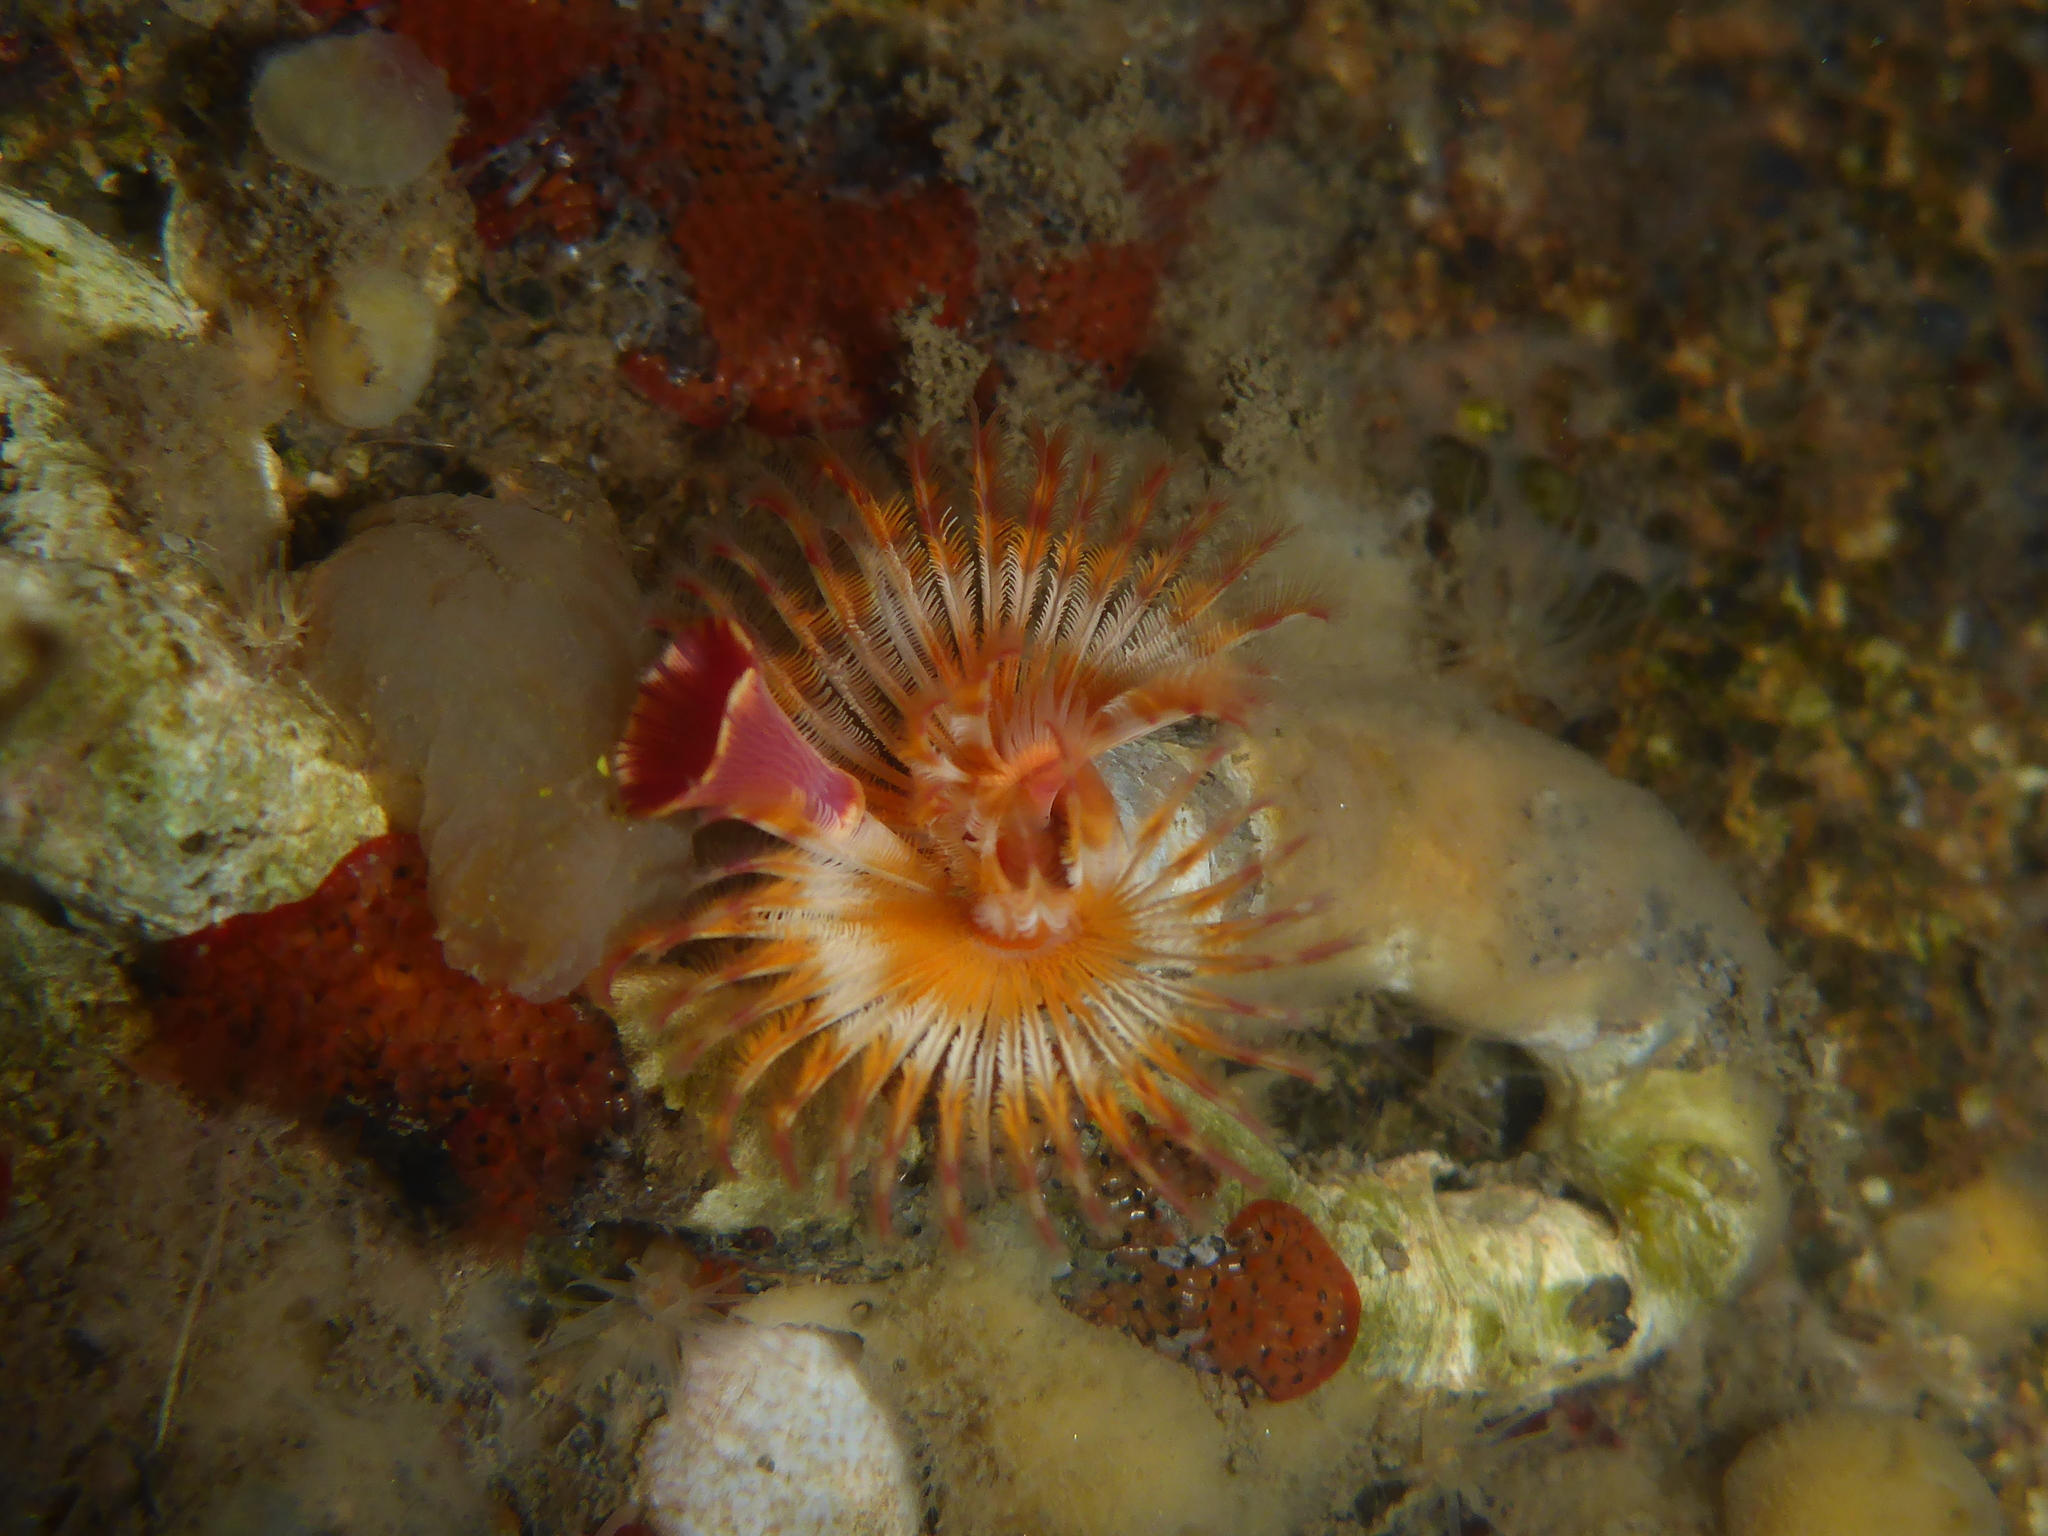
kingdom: Animalia
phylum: Annelida
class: Polychaeta
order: Sabellida
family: Serpulidae
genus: Serpula
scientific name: Serpula columbiana
